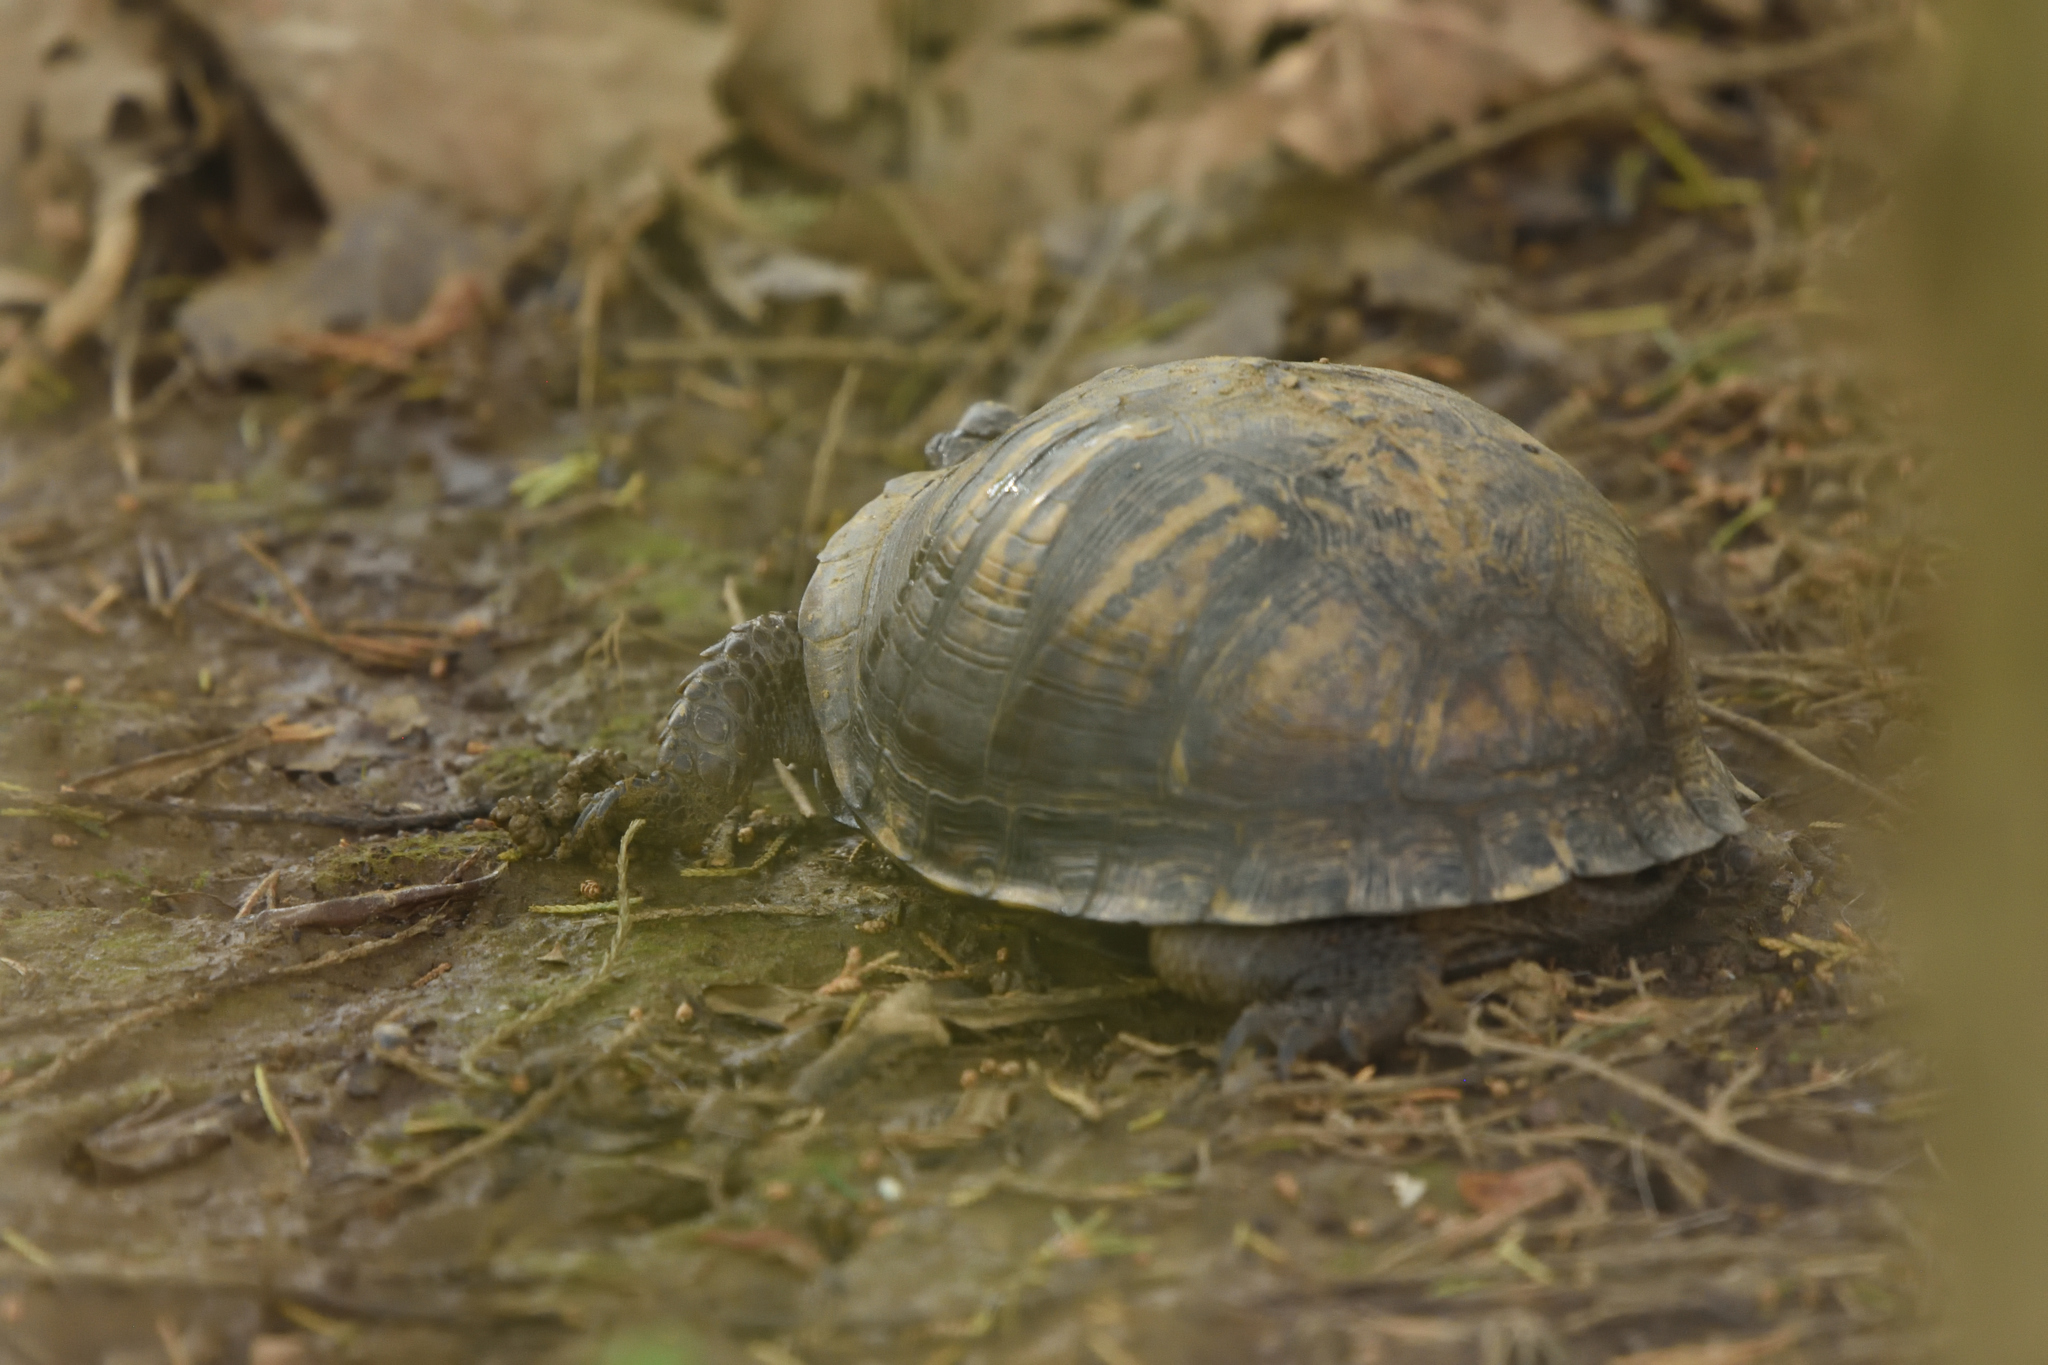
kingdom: Animalia
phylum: Chordata
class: Testudines
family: Emydidae
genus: Terrapene
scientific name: Terrapene carolina
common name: Common box turtle
